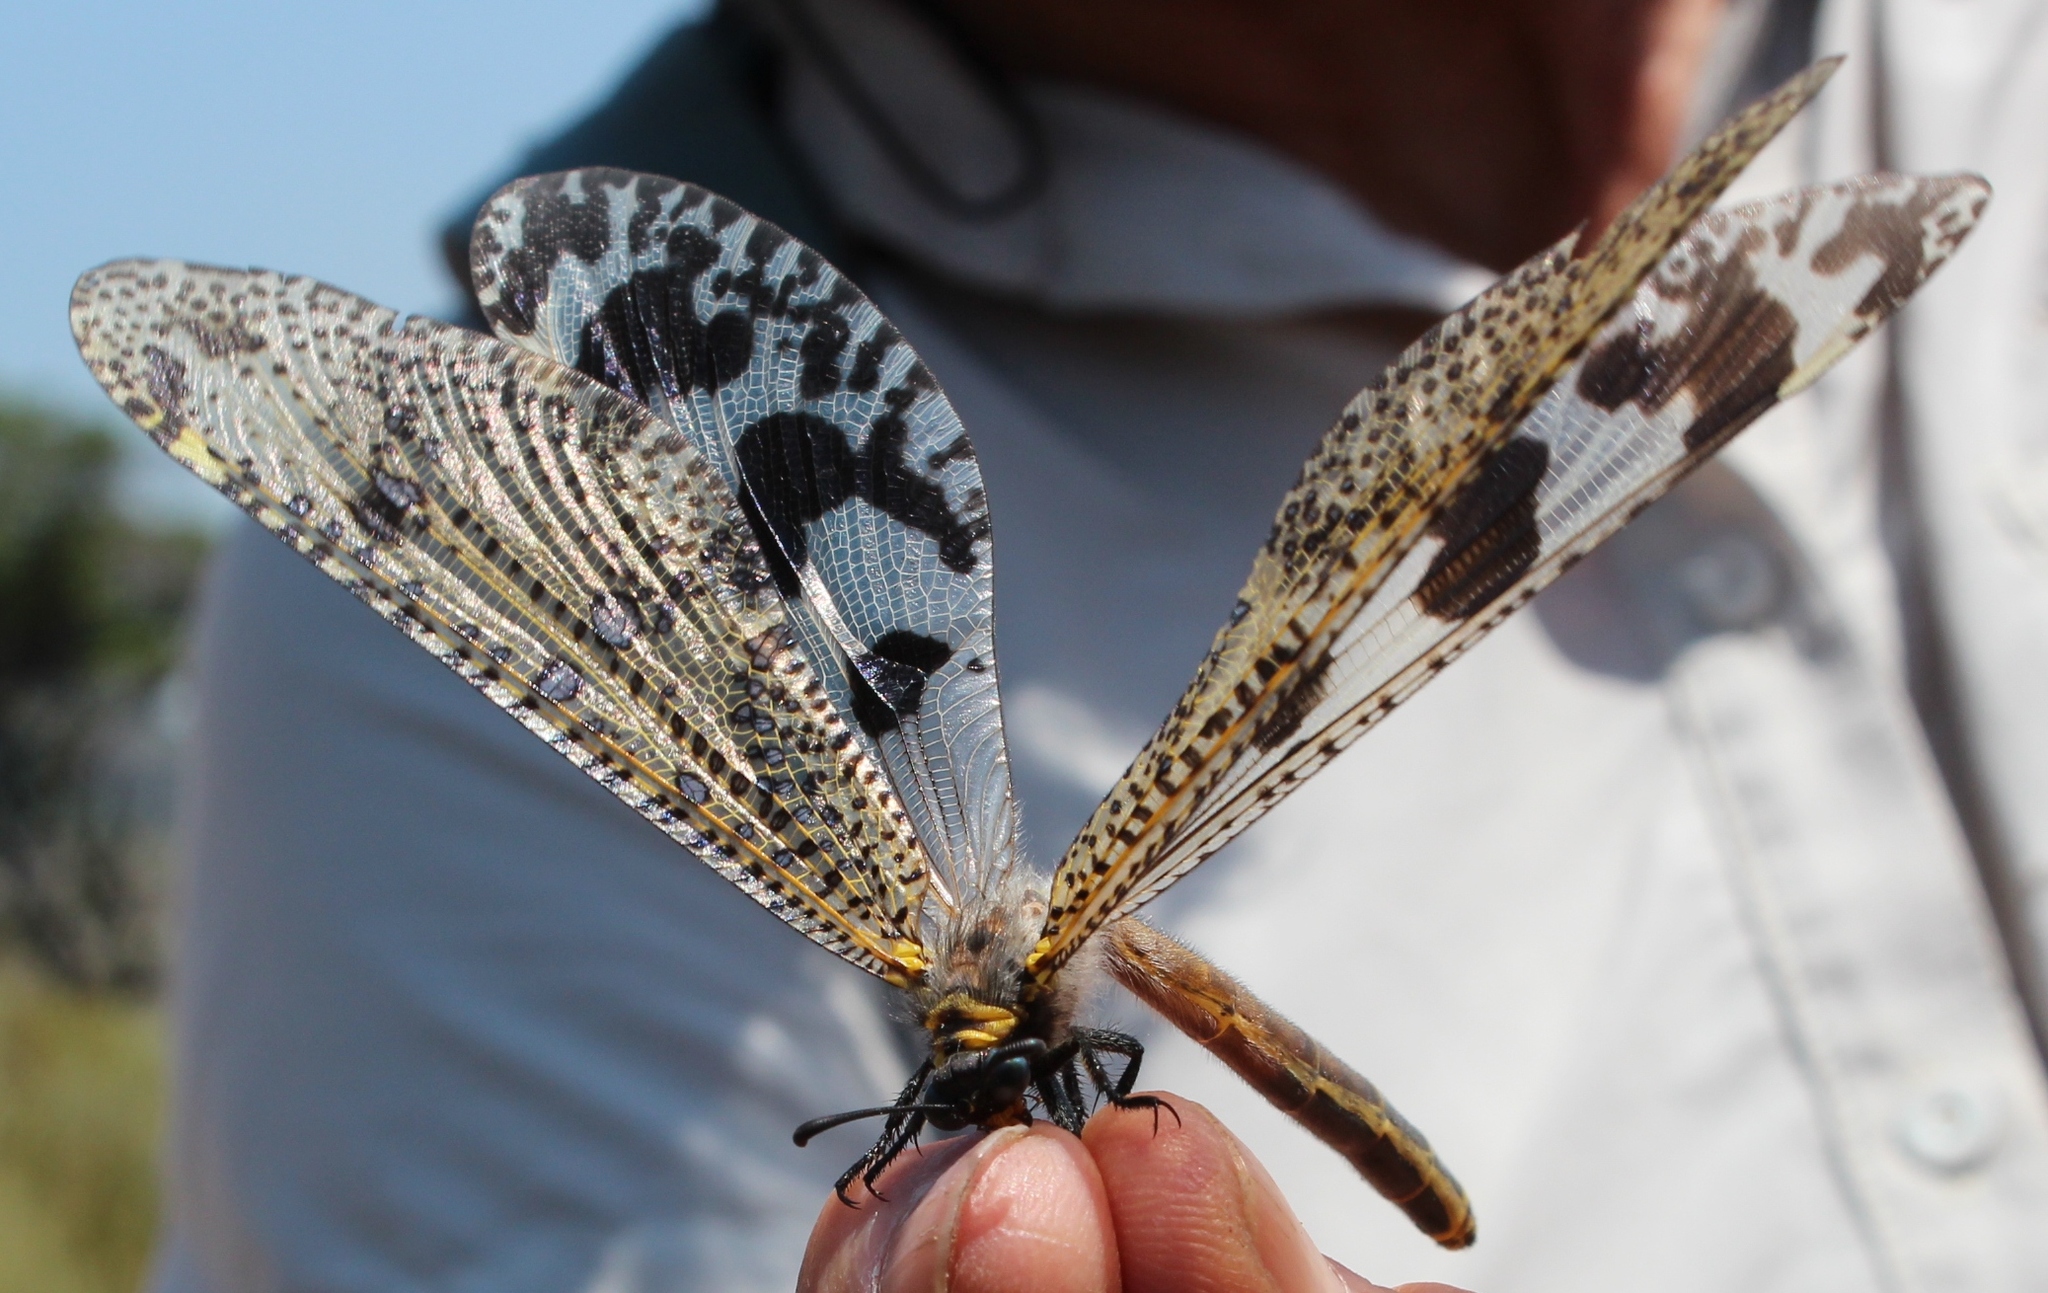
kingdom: Animalia
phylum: Arthropoda
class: Insecta
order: Neuroptera
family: Myrmeleontidae
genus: Palpares
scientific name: Palpares speciosus
